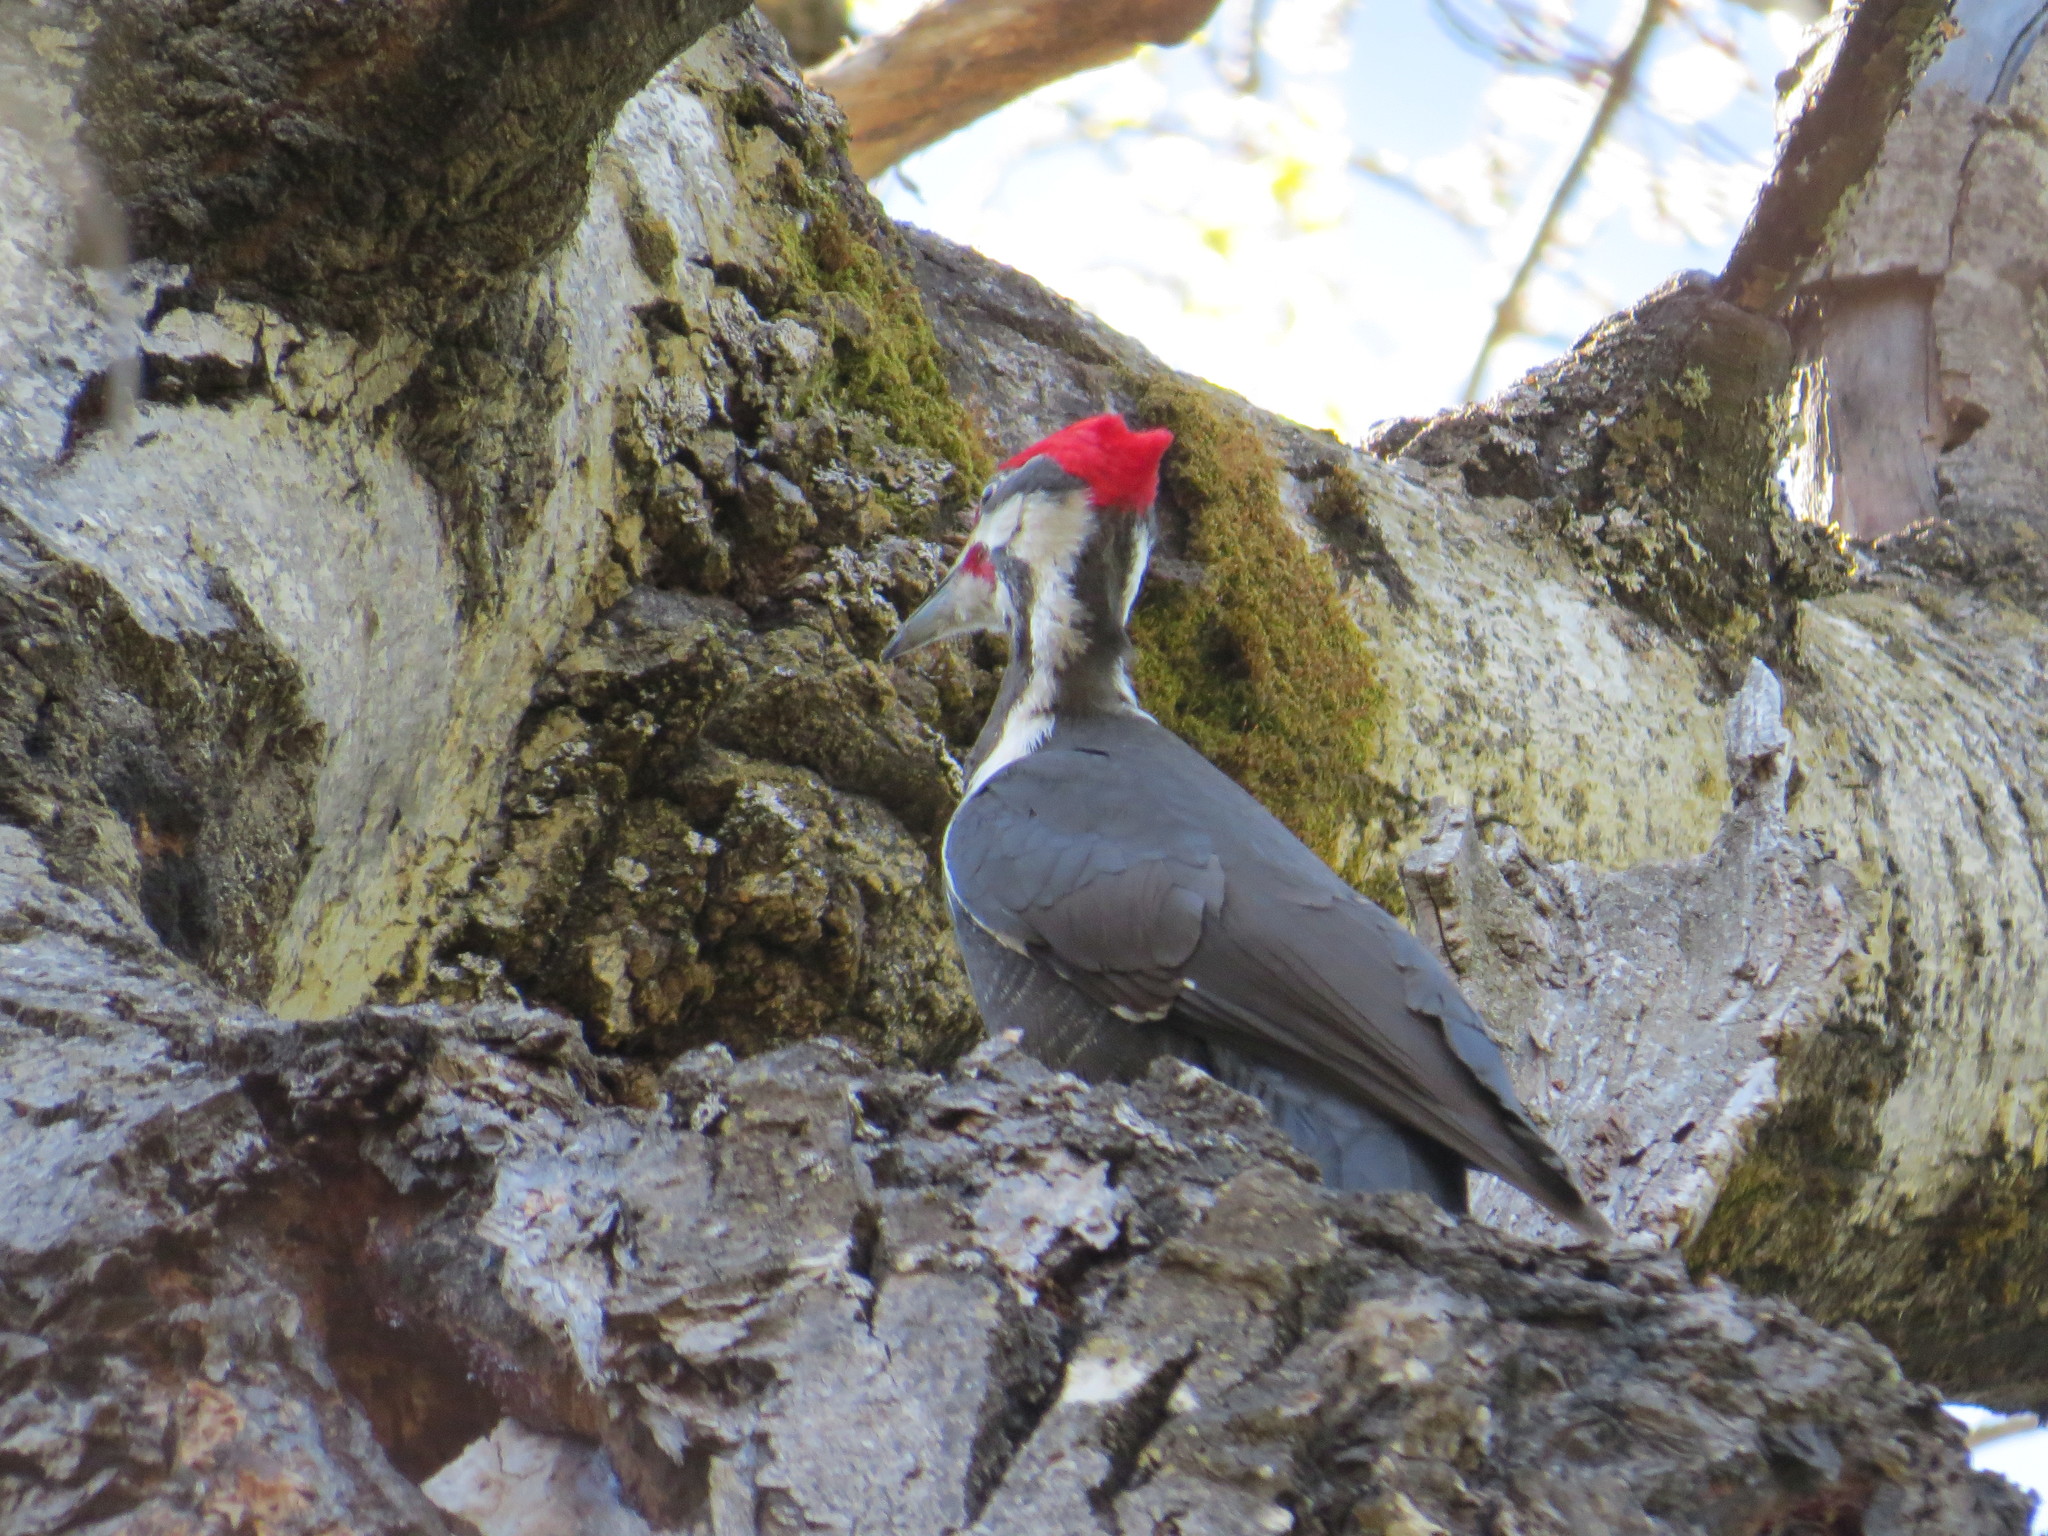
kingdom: Animalia
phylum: Chordata
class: Aves
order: Piciformes
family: Picidae
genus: Dryocopus
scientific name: Dryocopus pileatus
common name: Pileated woodpecker
